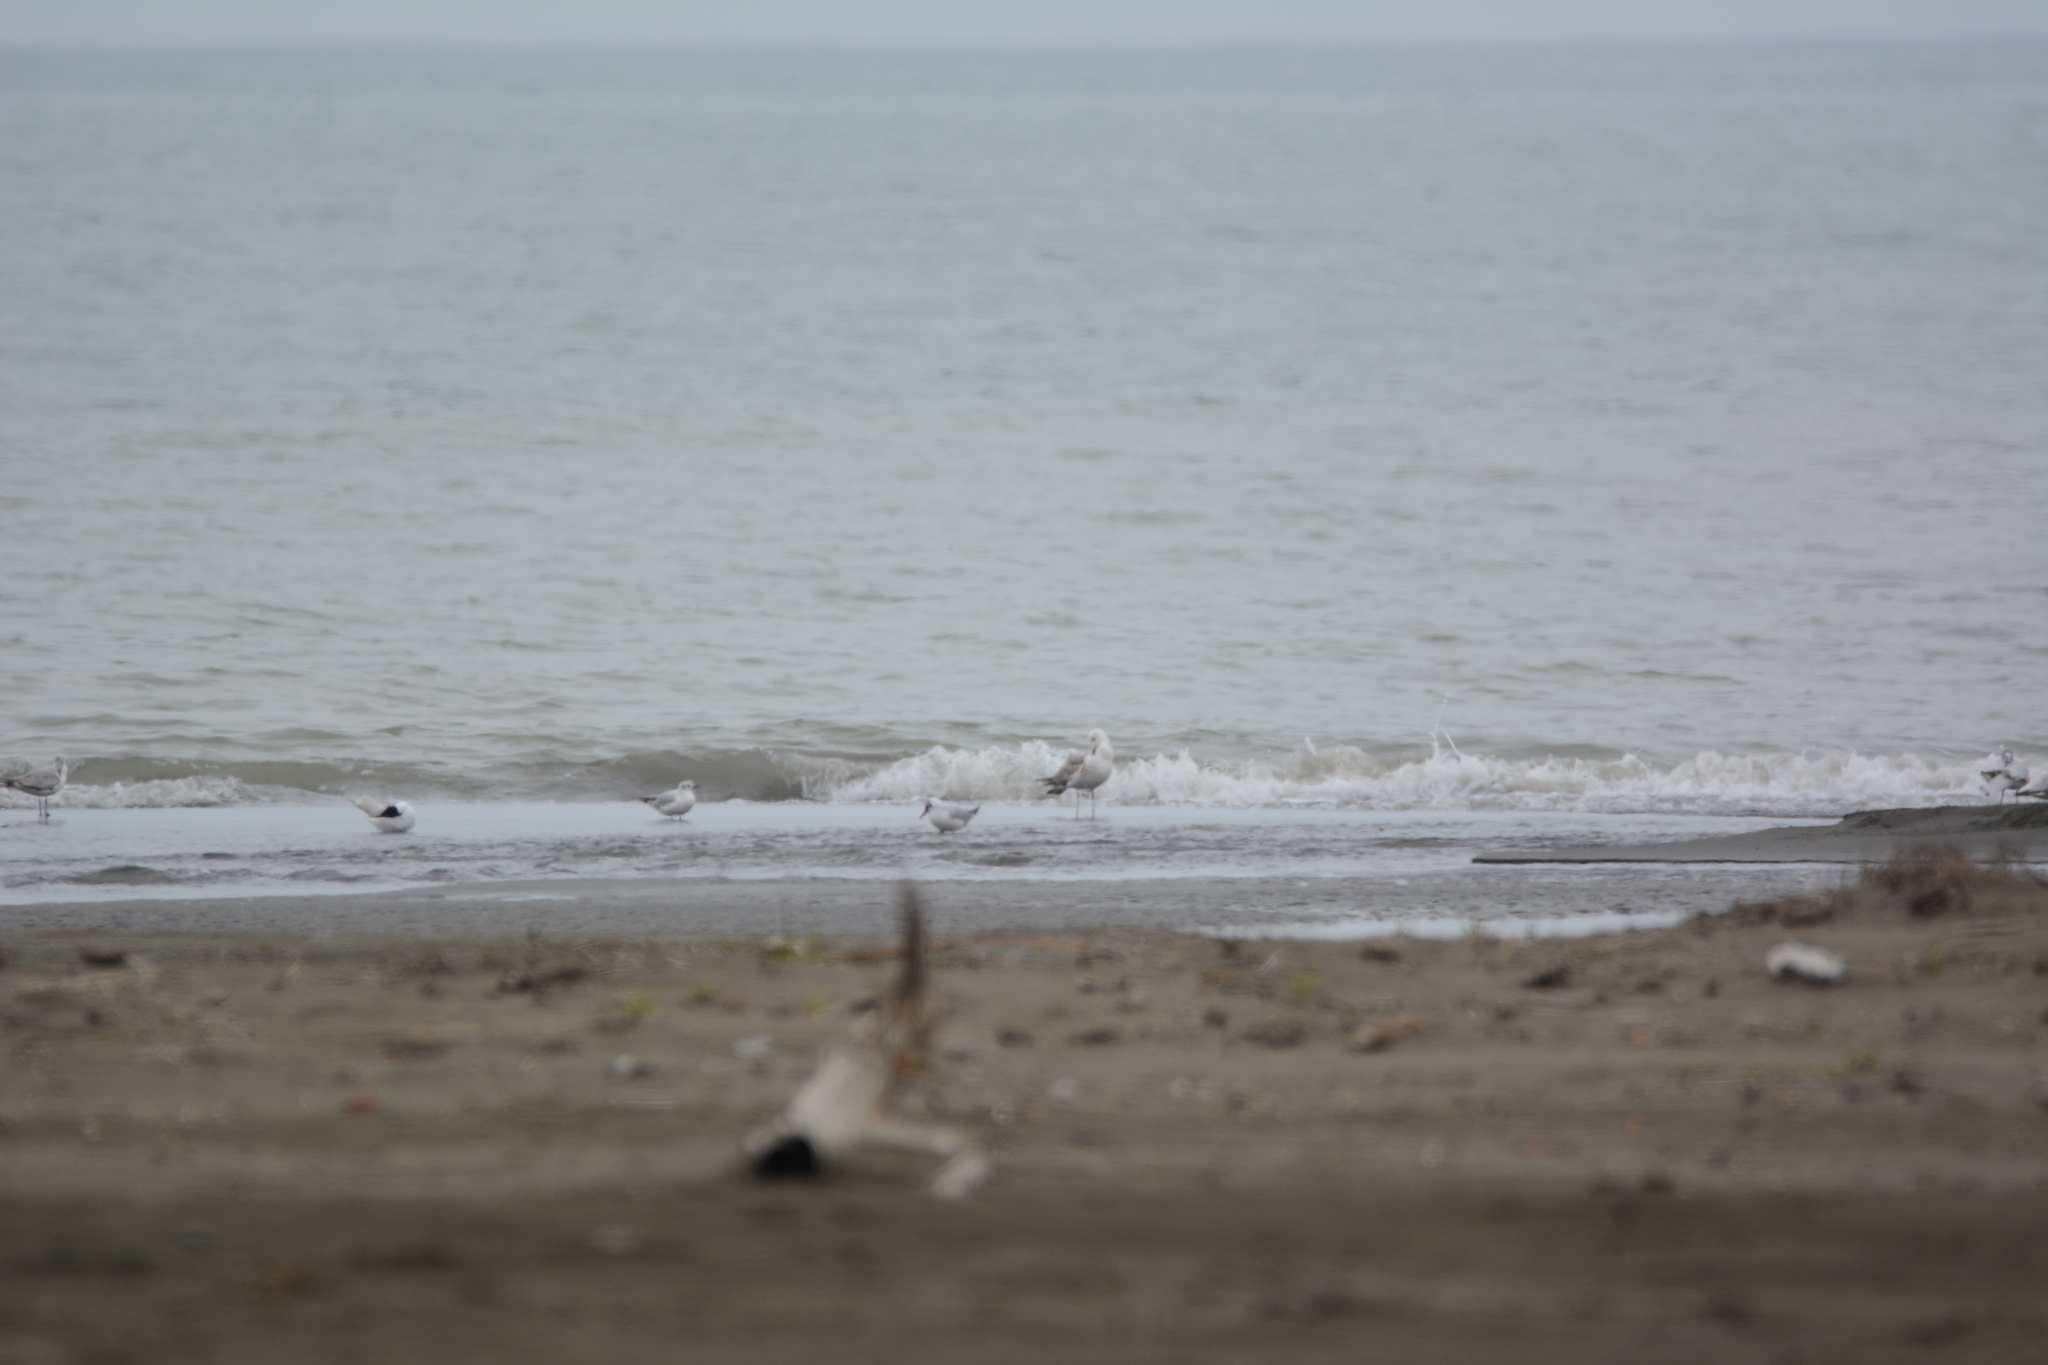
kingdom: Animalia
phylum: Chordata
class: Aves
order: Charadriiformes
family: Laridae
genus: Chroicocephalus
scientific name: Chroicocephalus ridibundus
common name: Black-headed gull
